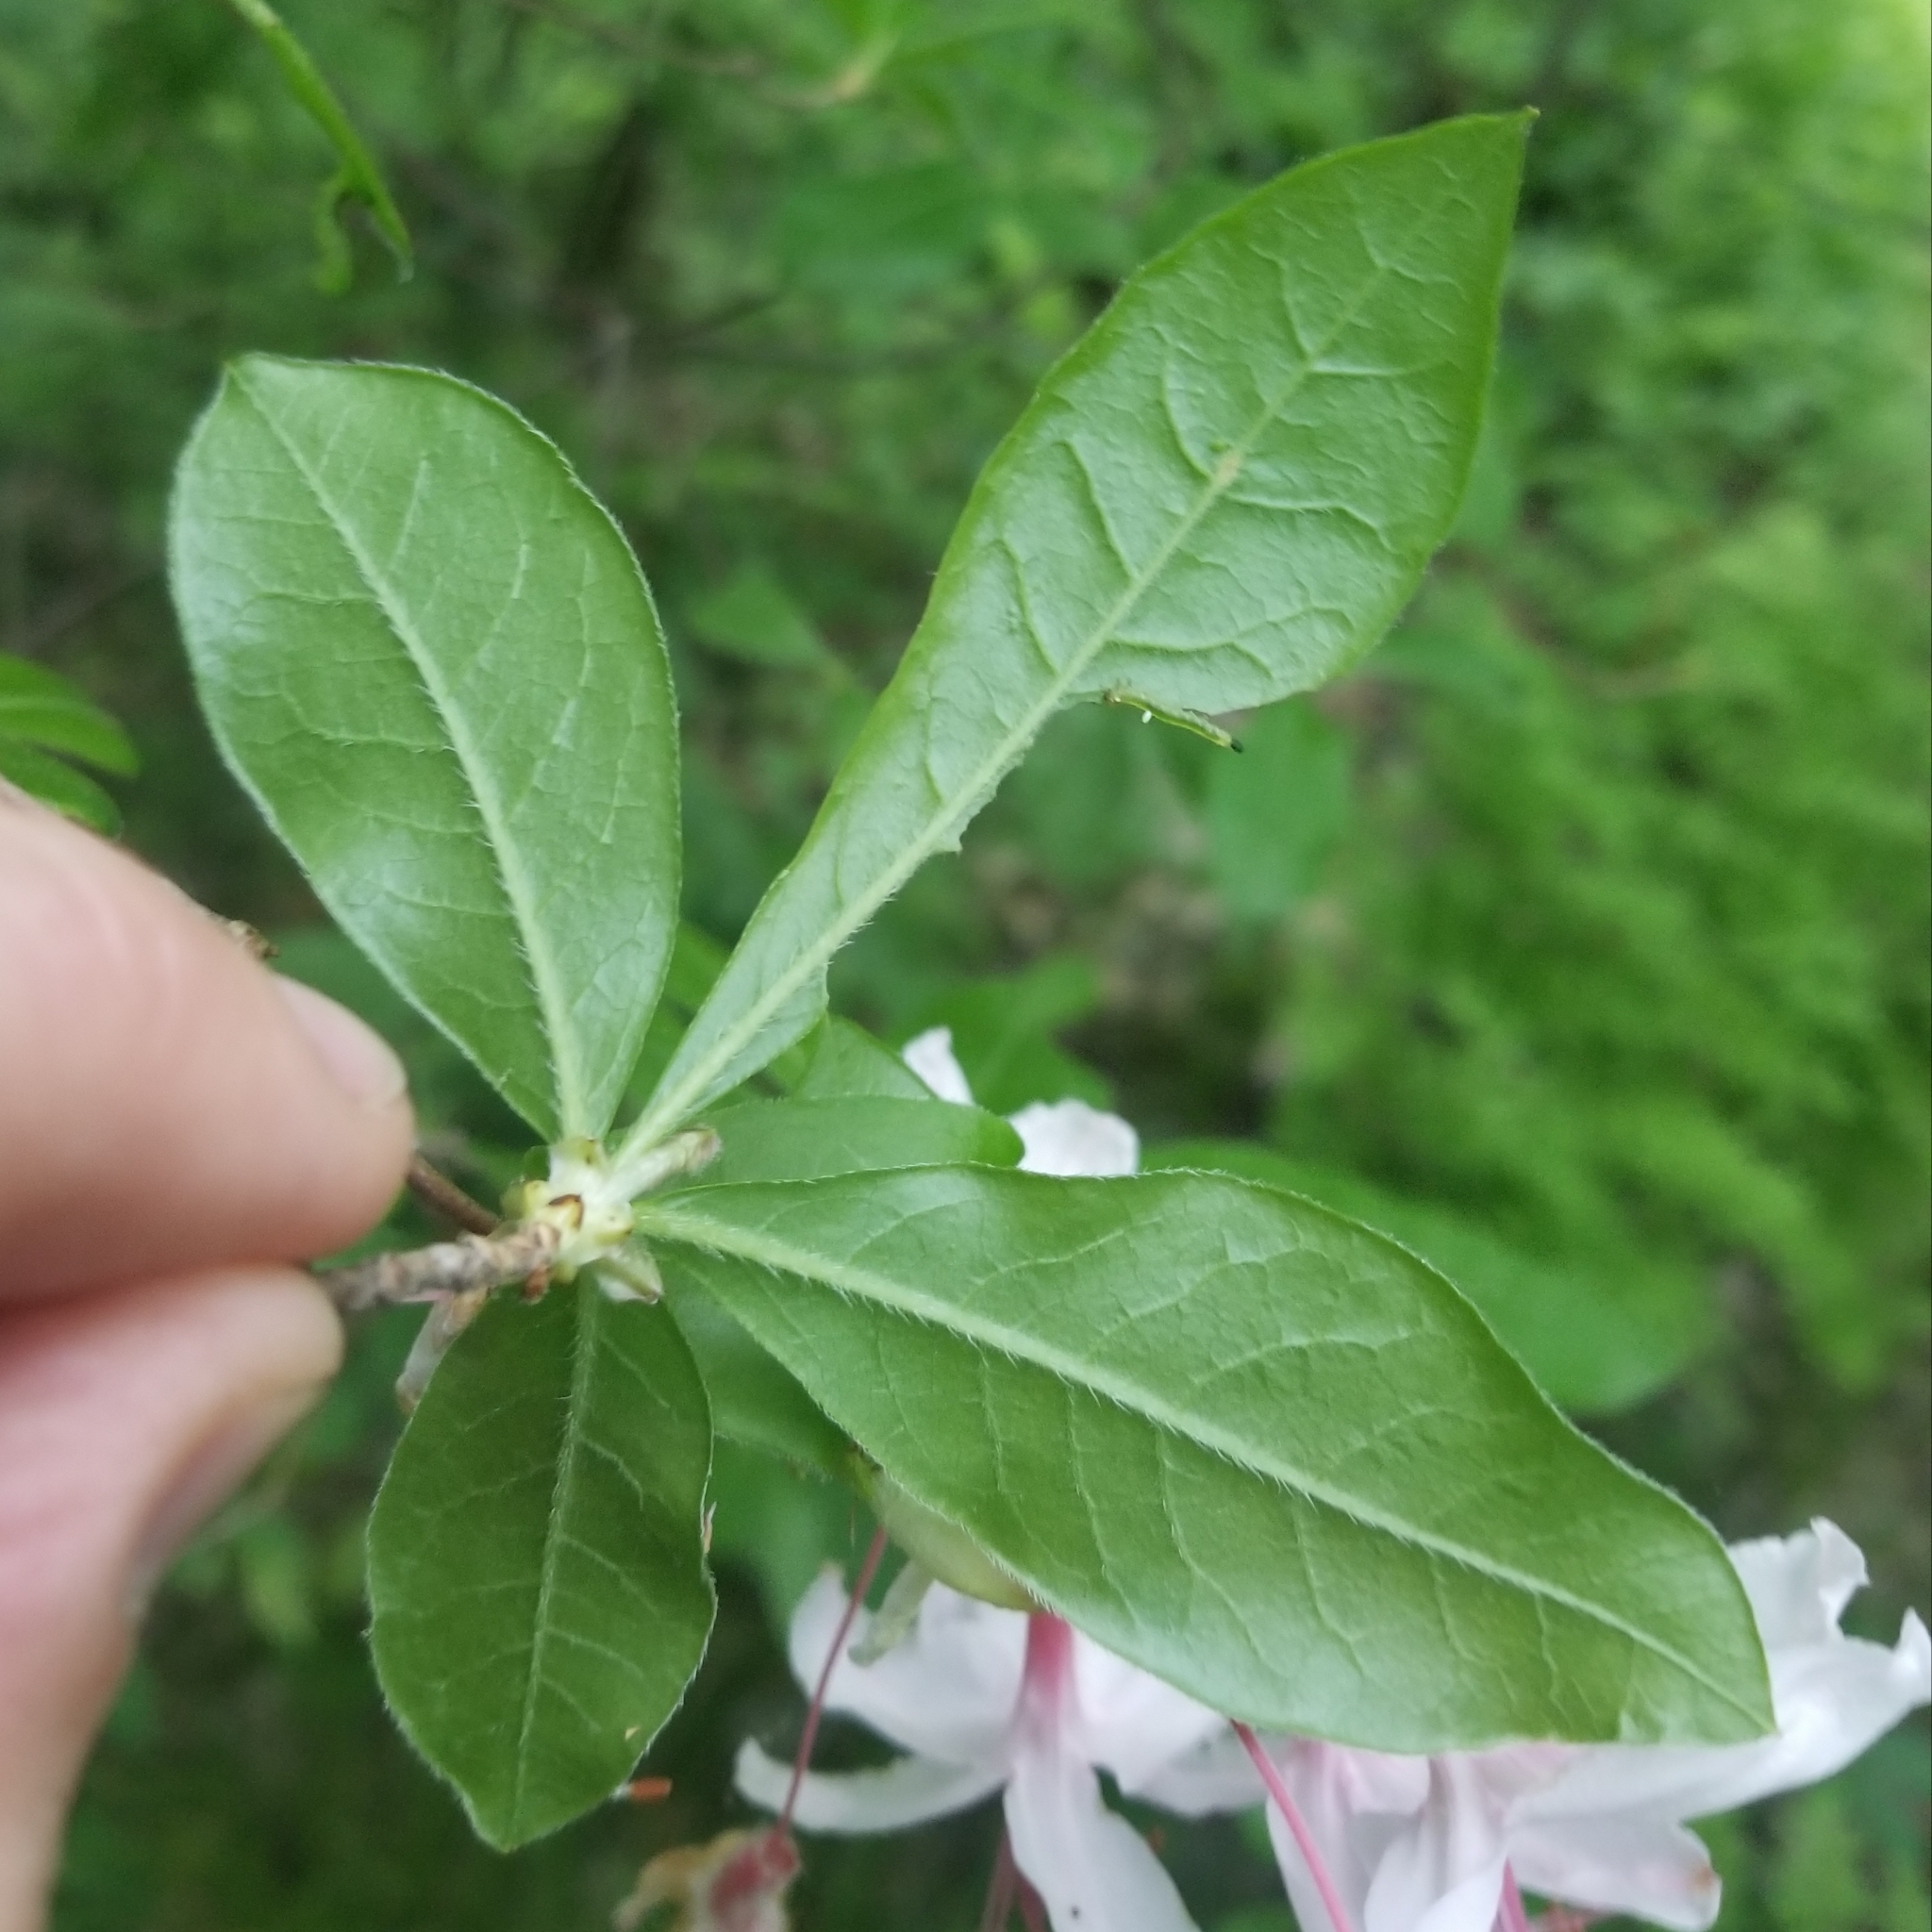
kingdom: Plantae
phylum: Tracheophyta
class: Magnoliopsida
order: Ericales
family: Ericaceae
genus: Rhododendron
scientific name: Rhododendron periclymenoides
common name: Election-pink
